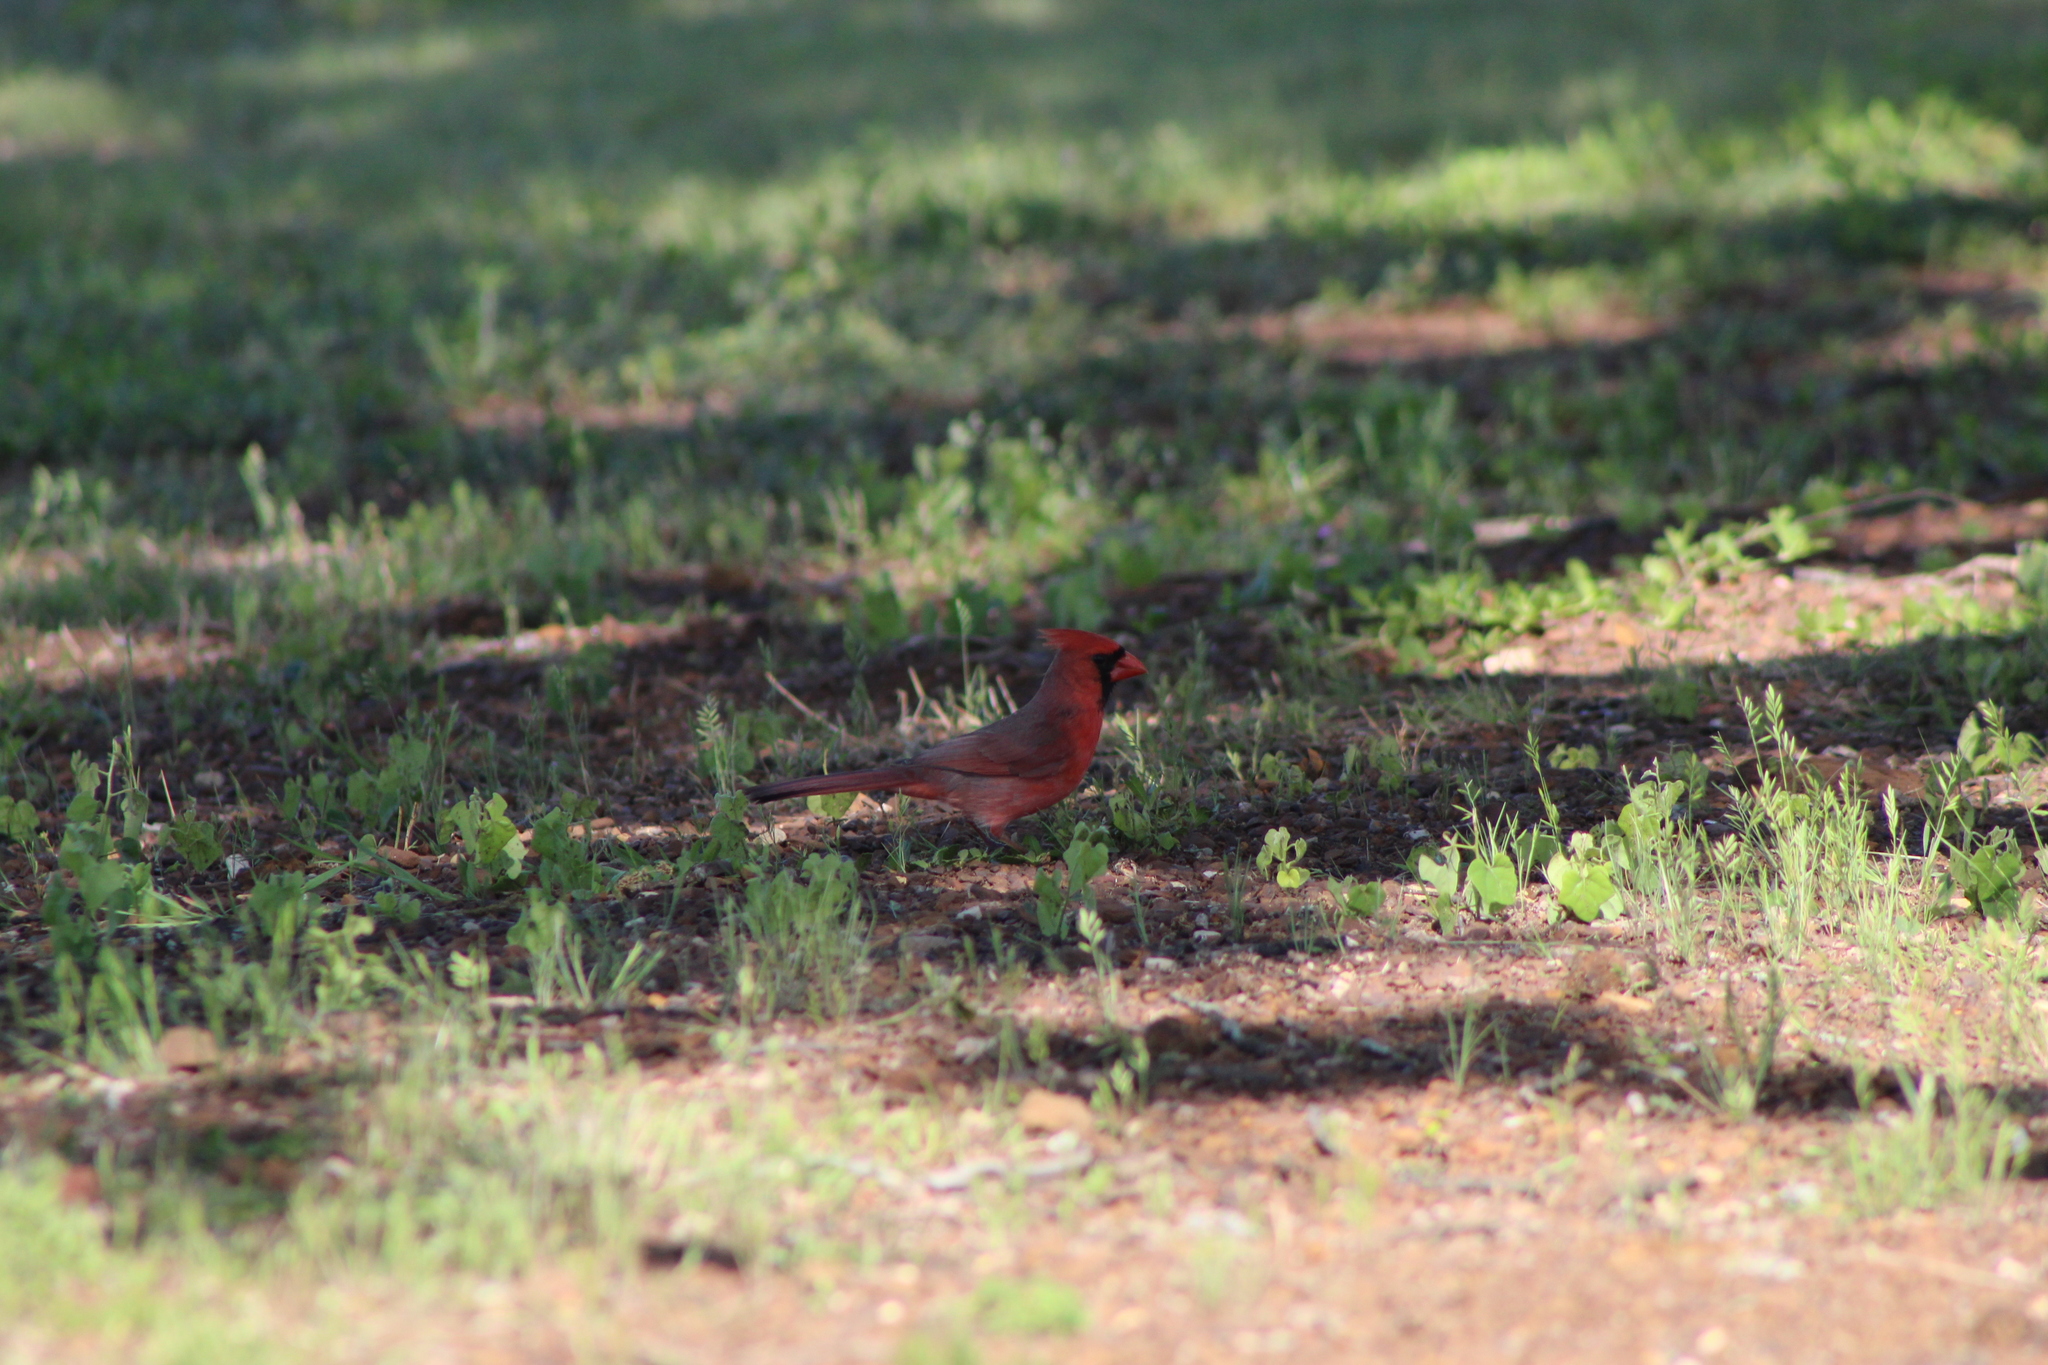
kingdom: Animalia
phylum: Chordata
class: Aves
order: Passeriformes
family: Cardinalidae
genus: Cardinalis
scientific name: Cardinalis cardinalis
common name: Northern cardinal
